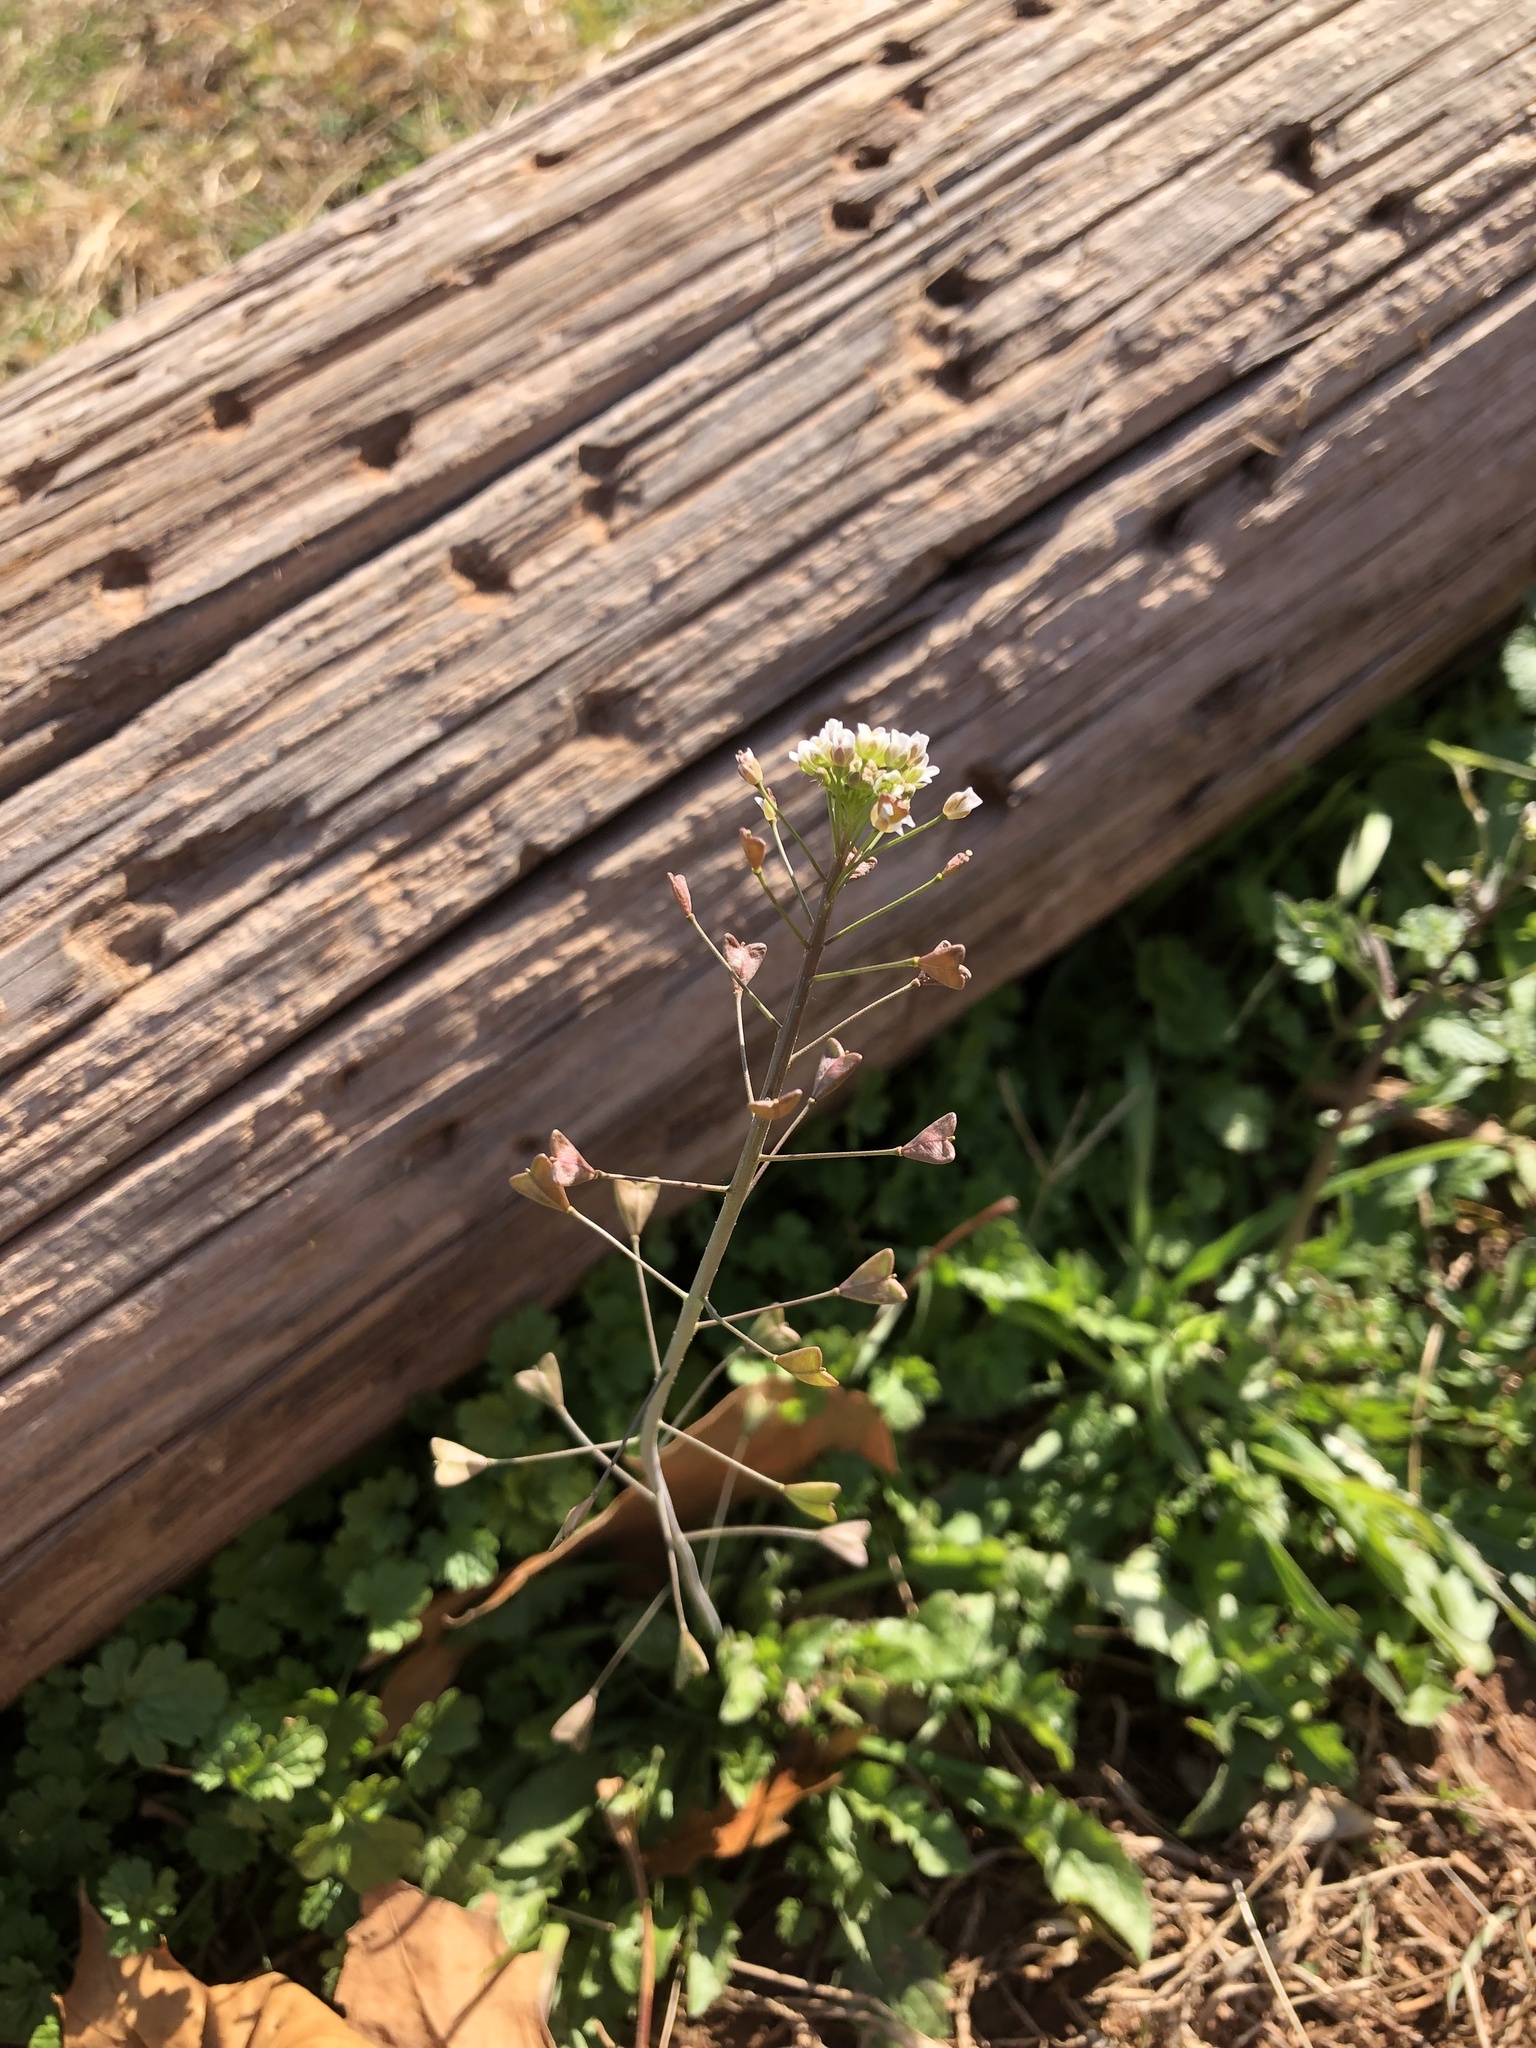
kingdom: Plantae
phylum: Tracheophyta
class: Magnoliopsida
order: Brassicales
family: Brassicaceae
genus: Capsella
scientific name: Capsella bursa-pastoris
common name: Shepherd's purse
